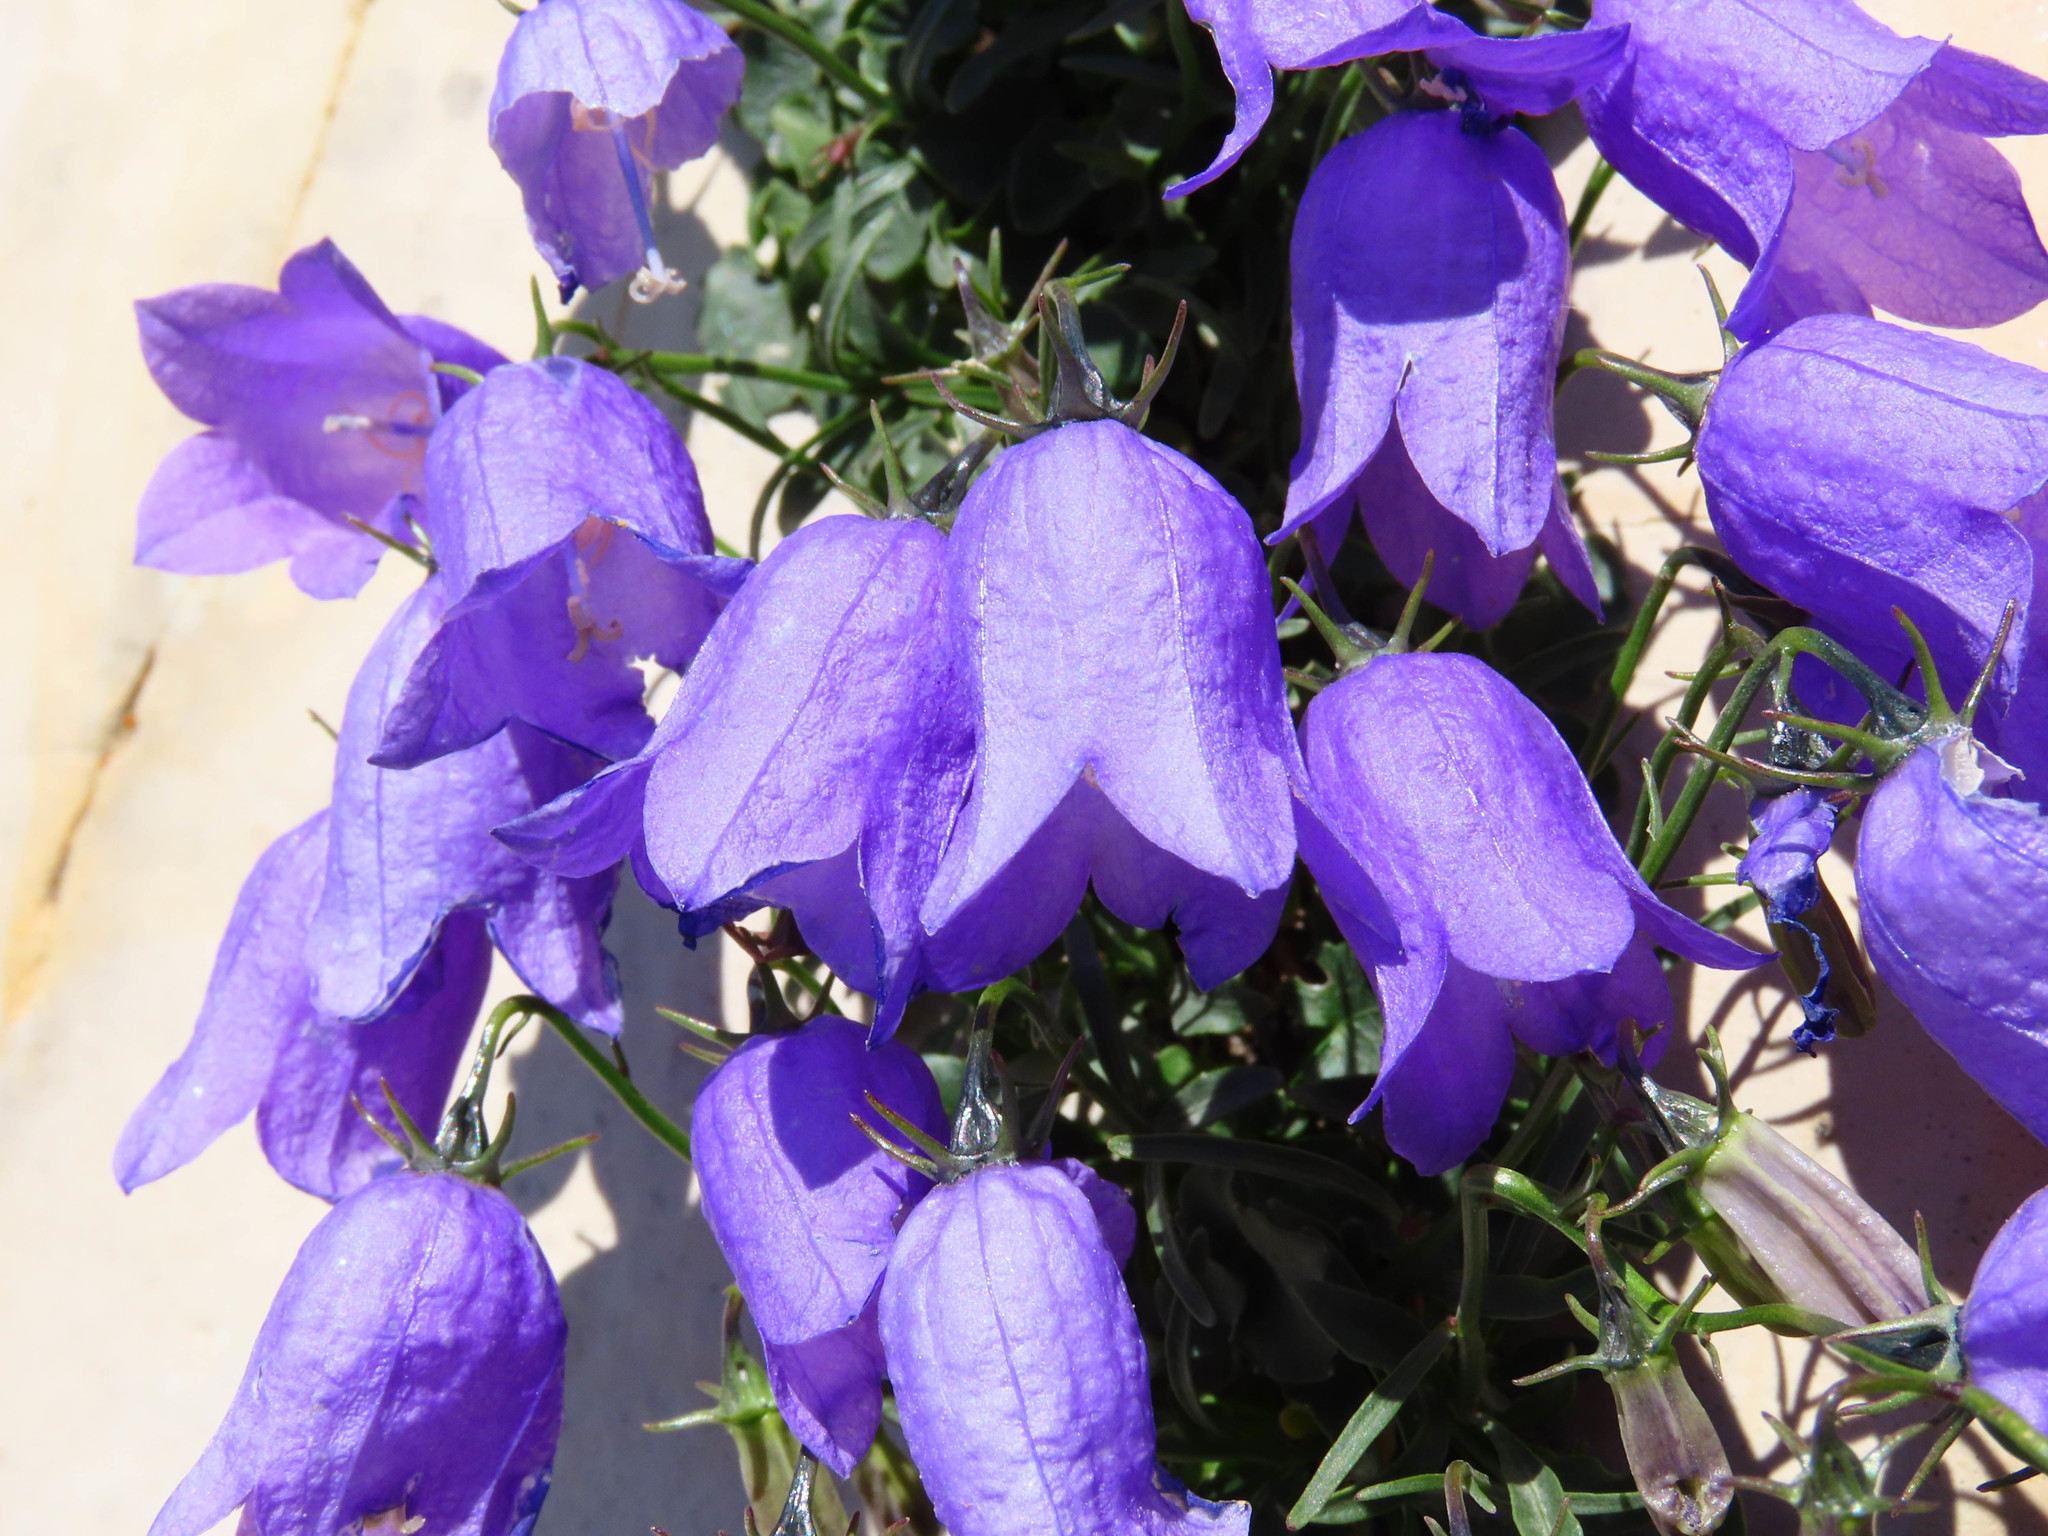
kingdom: Plantae
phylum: Tracheophyta
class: Magnoliopsida
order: Asterales
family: Campanulaceae
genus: Campanula
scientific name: Campanula cochleariifolia
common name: Fairies'-thimbles
